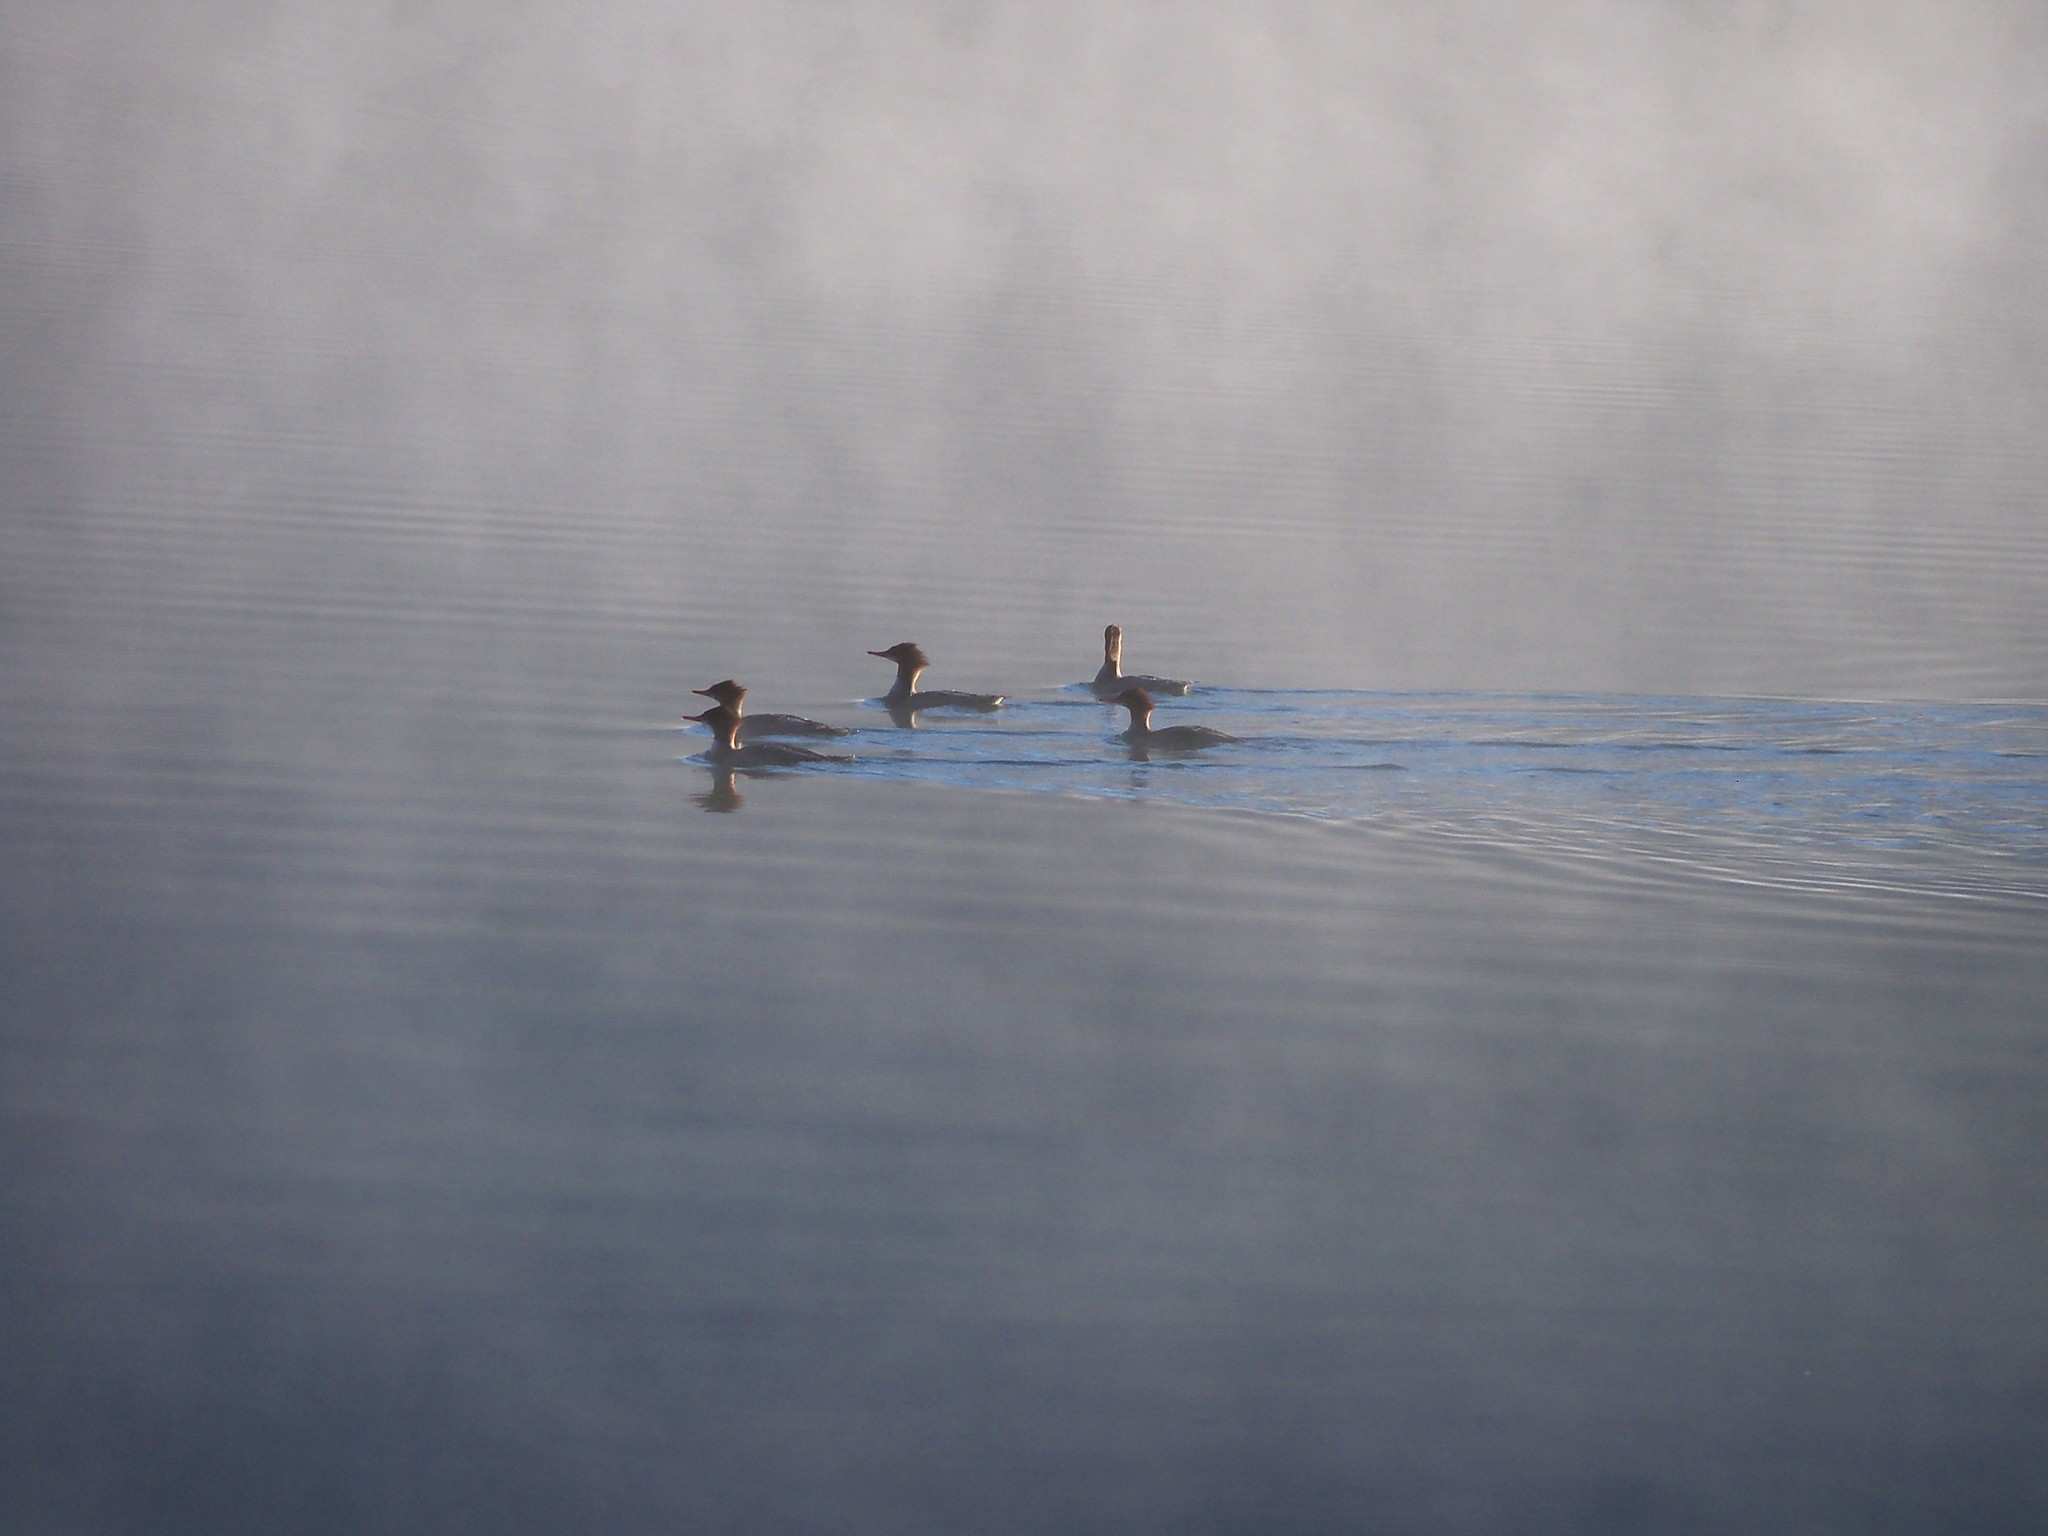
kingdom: Animalia
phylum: Chordata
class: Aves
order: Anseriformes
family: Anatidae
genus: Mergus
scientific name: Mergus merganser
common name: Common merganser
